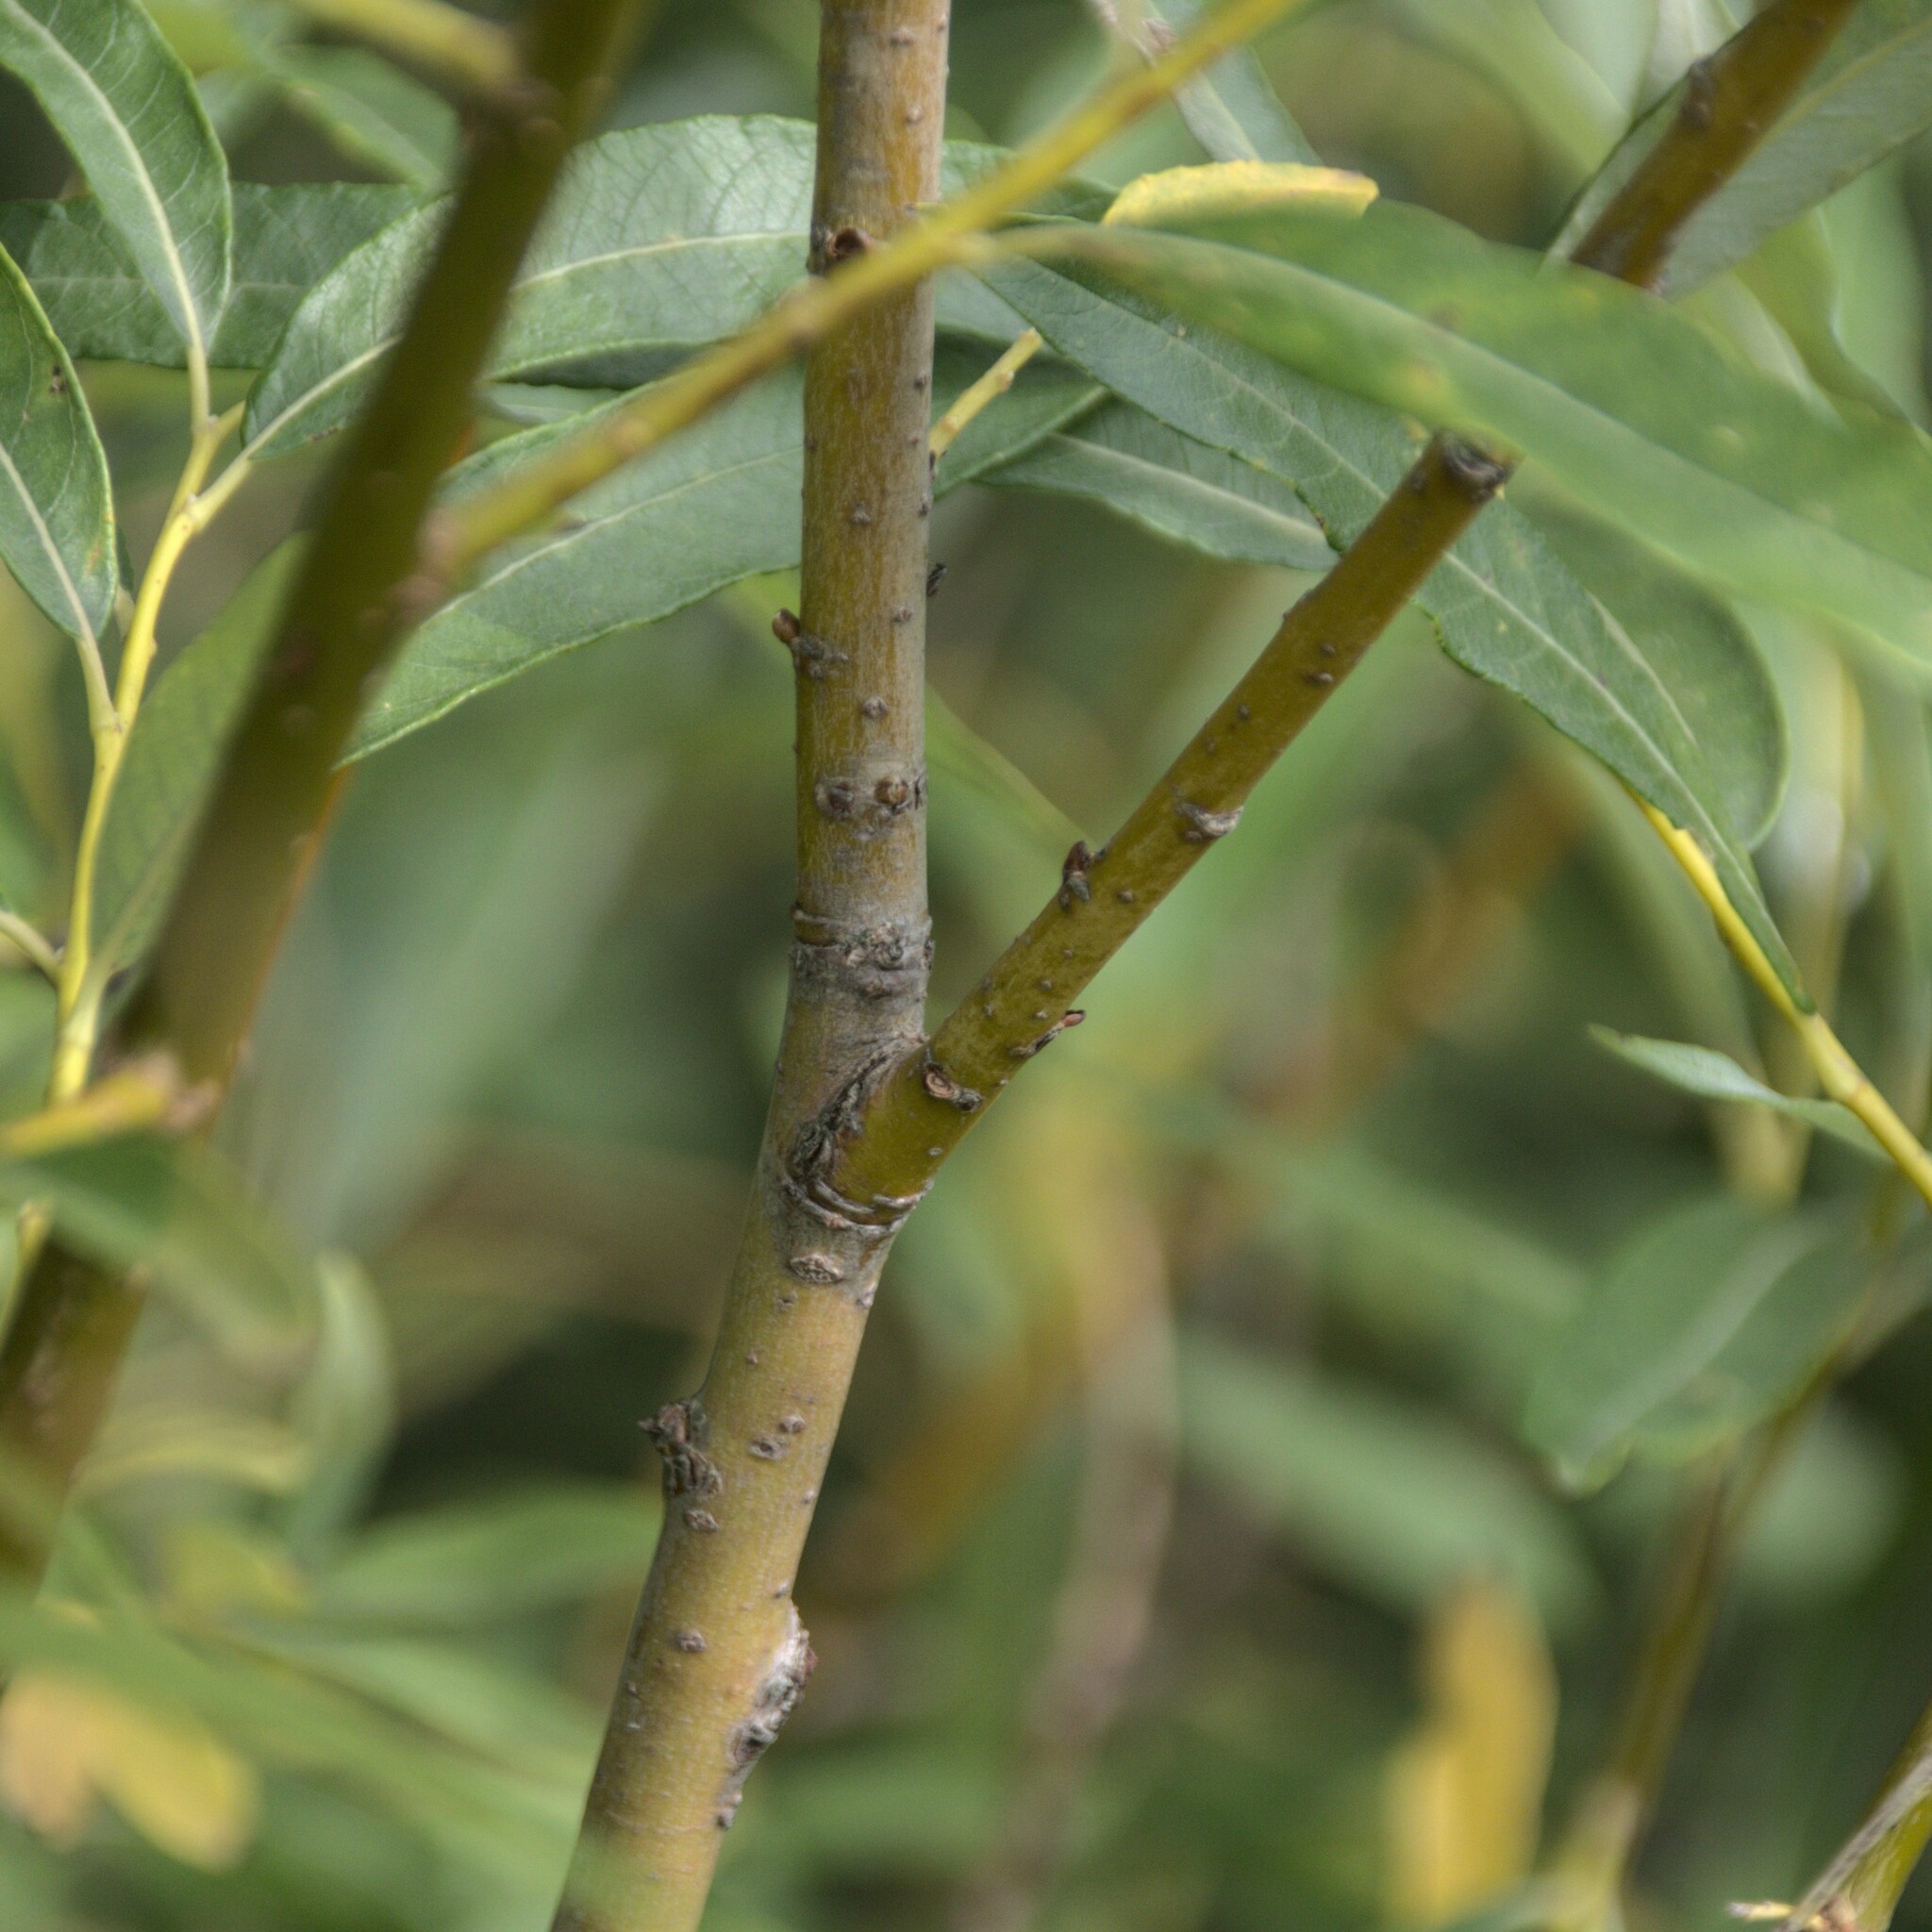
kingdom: Plantae
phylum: Tracheophyta
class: Magnoliopsida
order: Malpighiales
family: Salicaceae
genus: Salix
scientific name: Salix viminalis
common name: Osier
